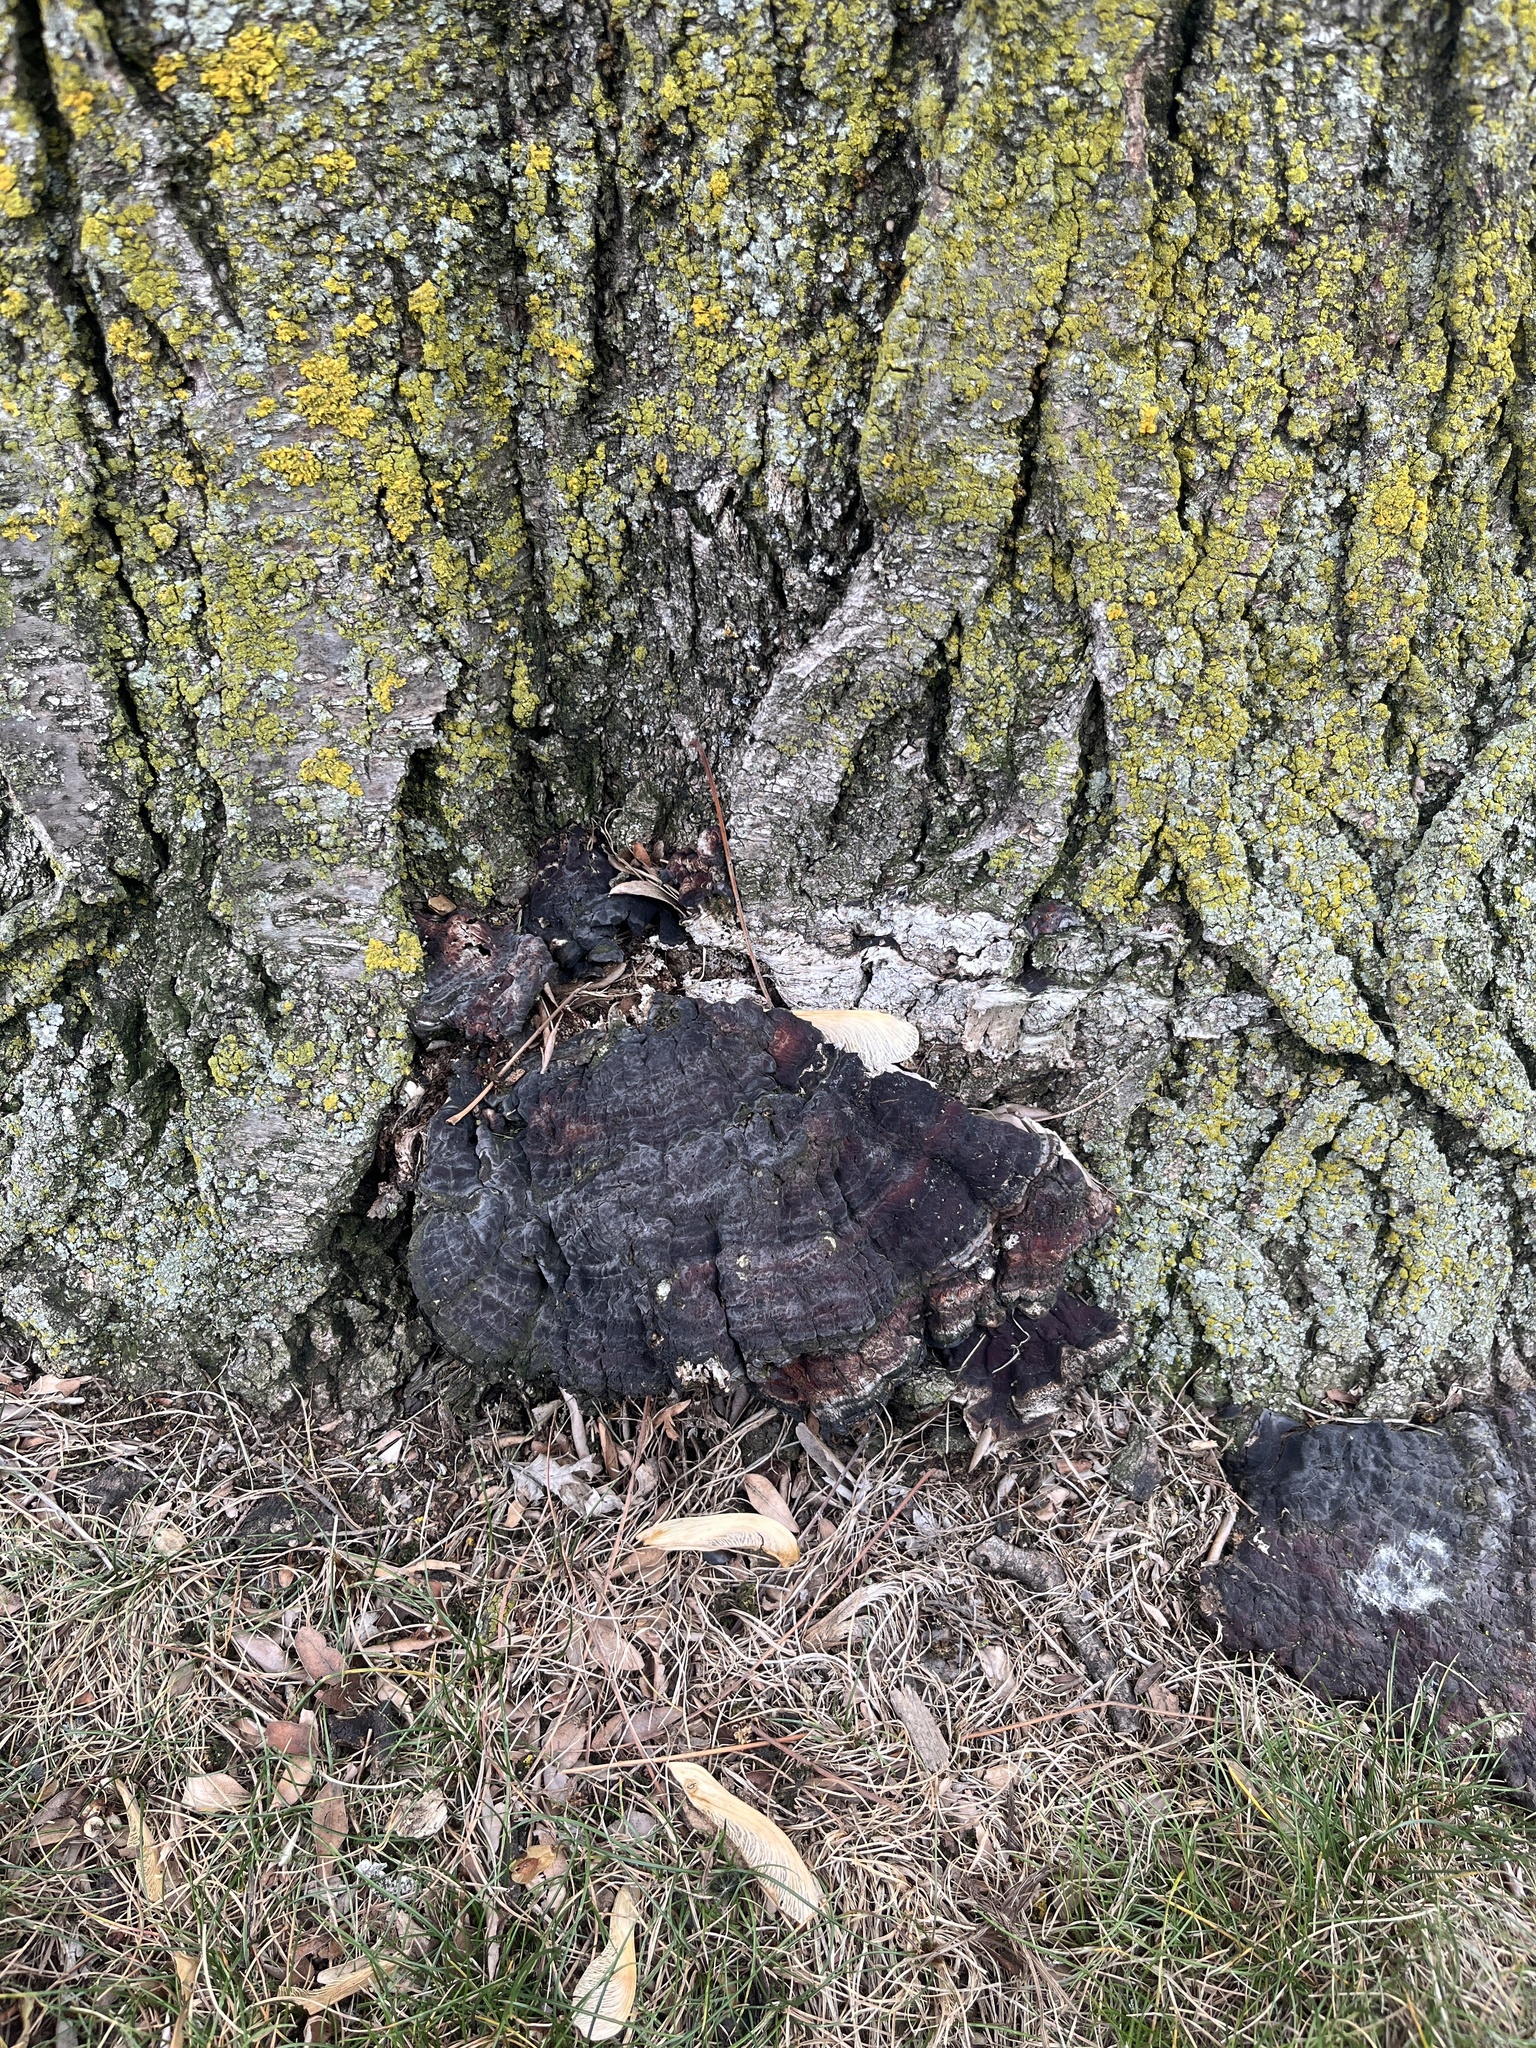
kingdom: Fungi
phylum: Basidiomycota
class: Agaricomycetes
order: Polyporales
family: Polyporaceae
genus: Ganoderma
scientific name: Ganoderma resinaceum
